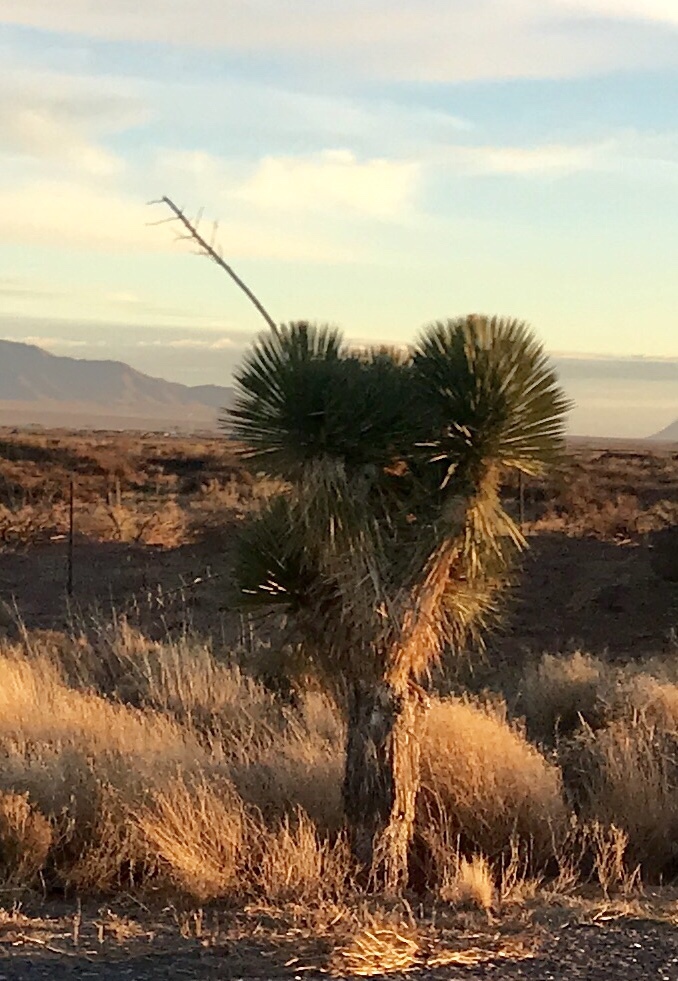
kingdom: Plantae
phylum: Tracheophyta
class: Liliopsida
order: Asparagales
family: Asparagaceae
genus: Yucca
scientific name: Yucca elata
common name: Palmella
